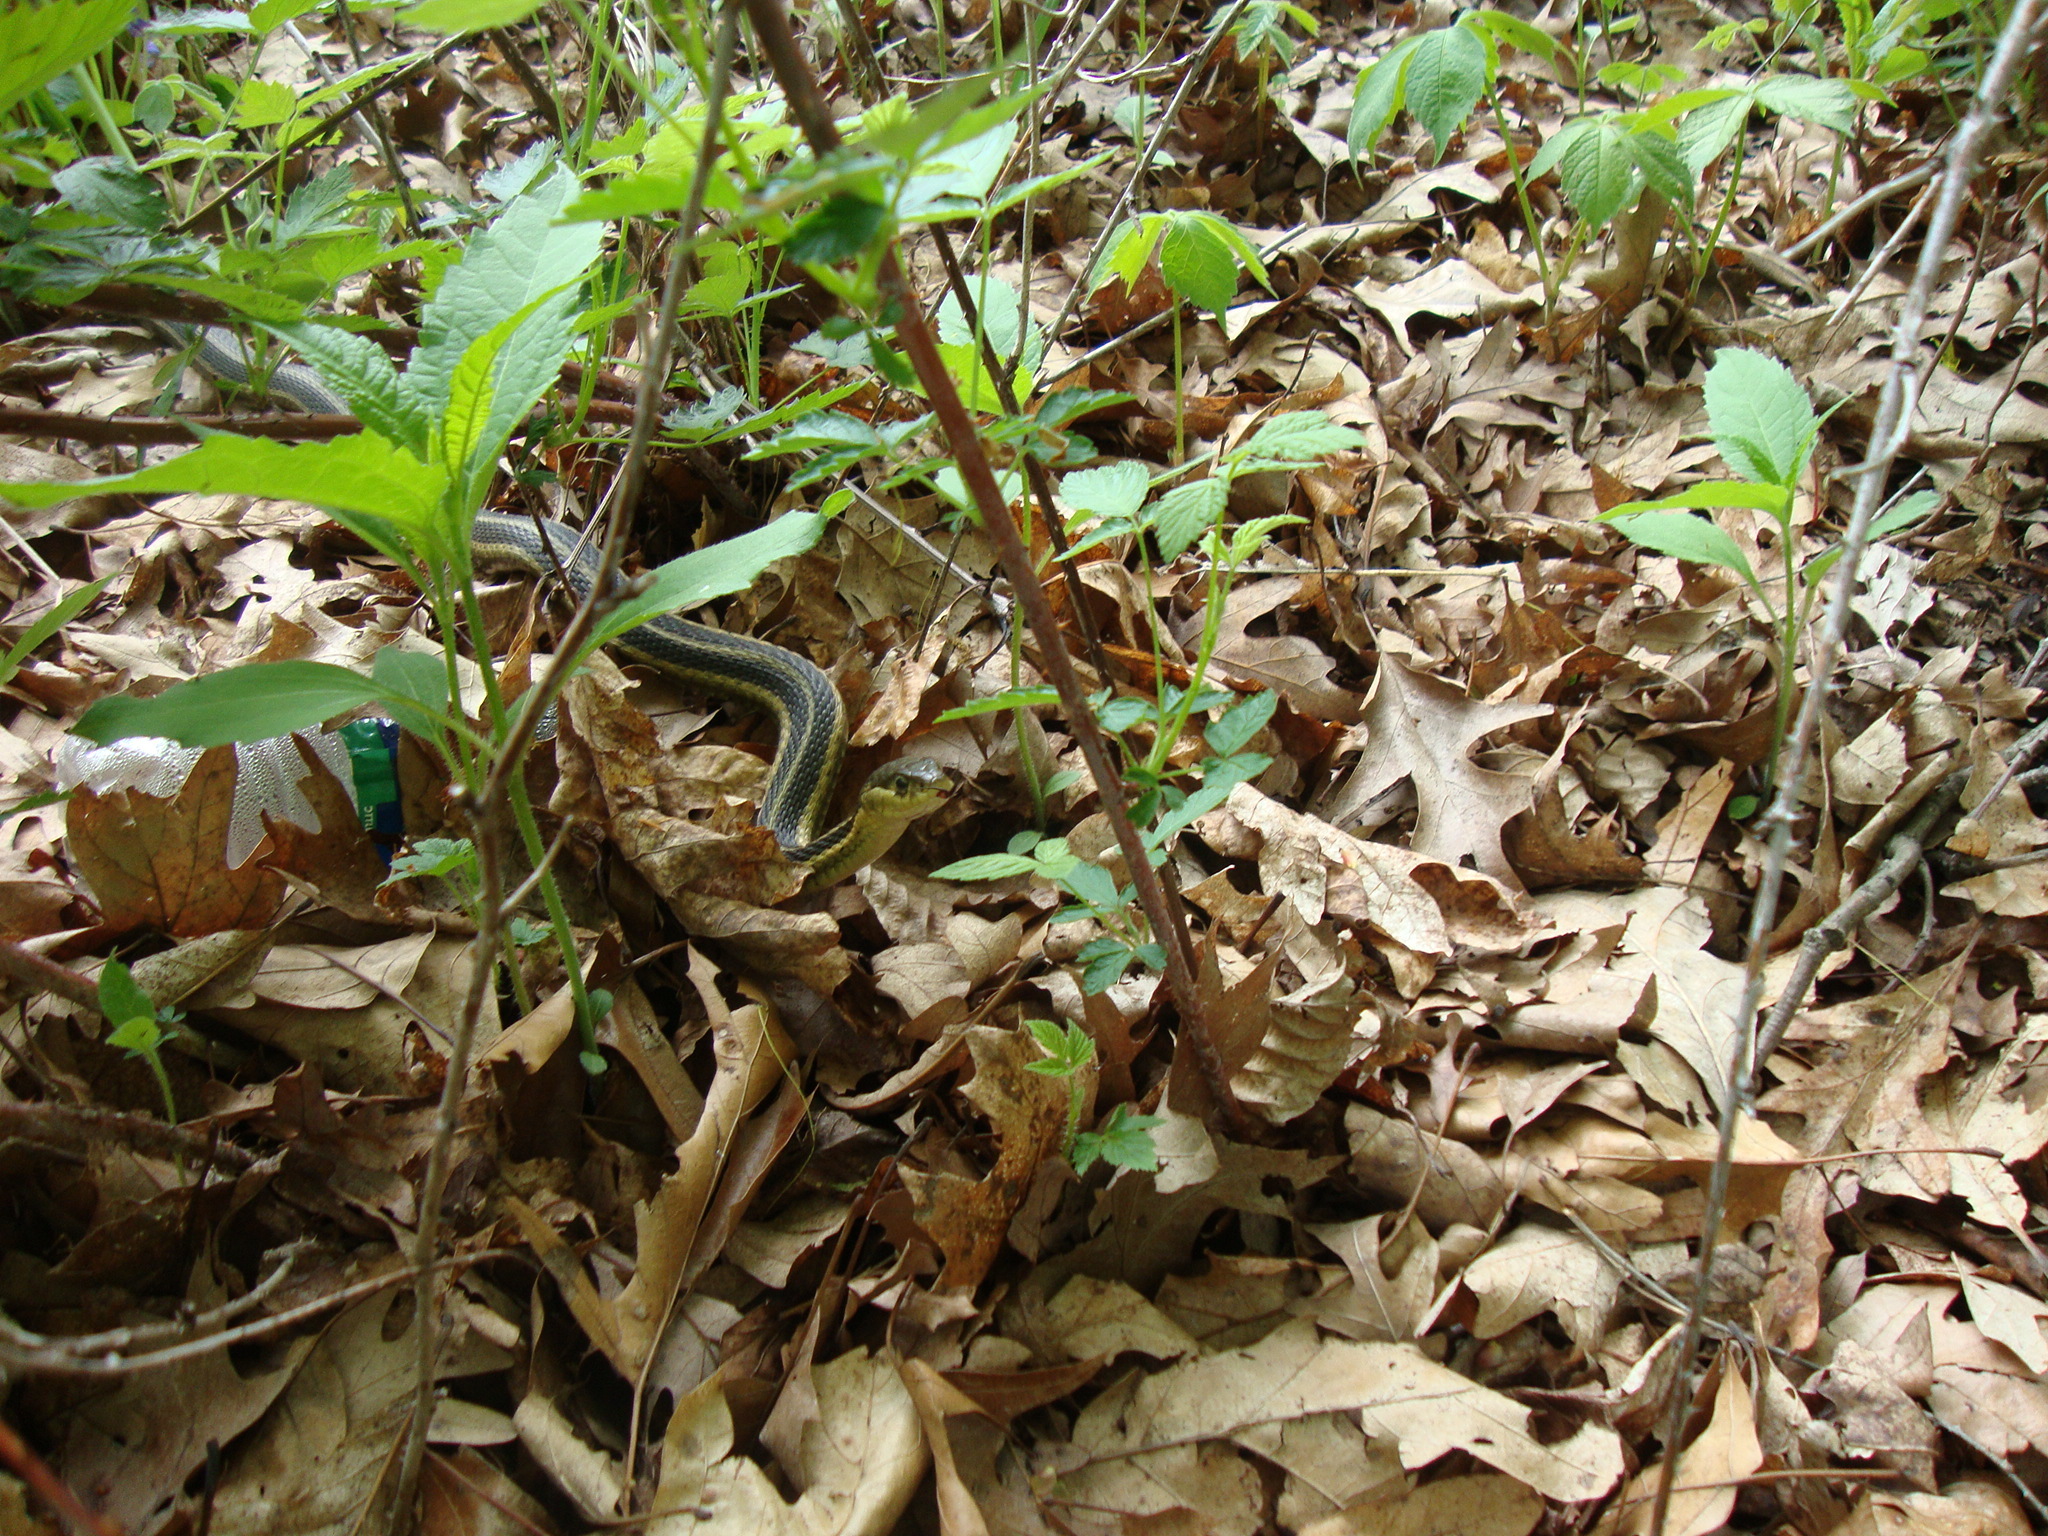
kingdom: Animalia
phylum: Chordata
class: Squamata
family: Colubridae
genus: Thamnophis
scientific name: Thamnophis sirtalis
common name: Common garter snake
